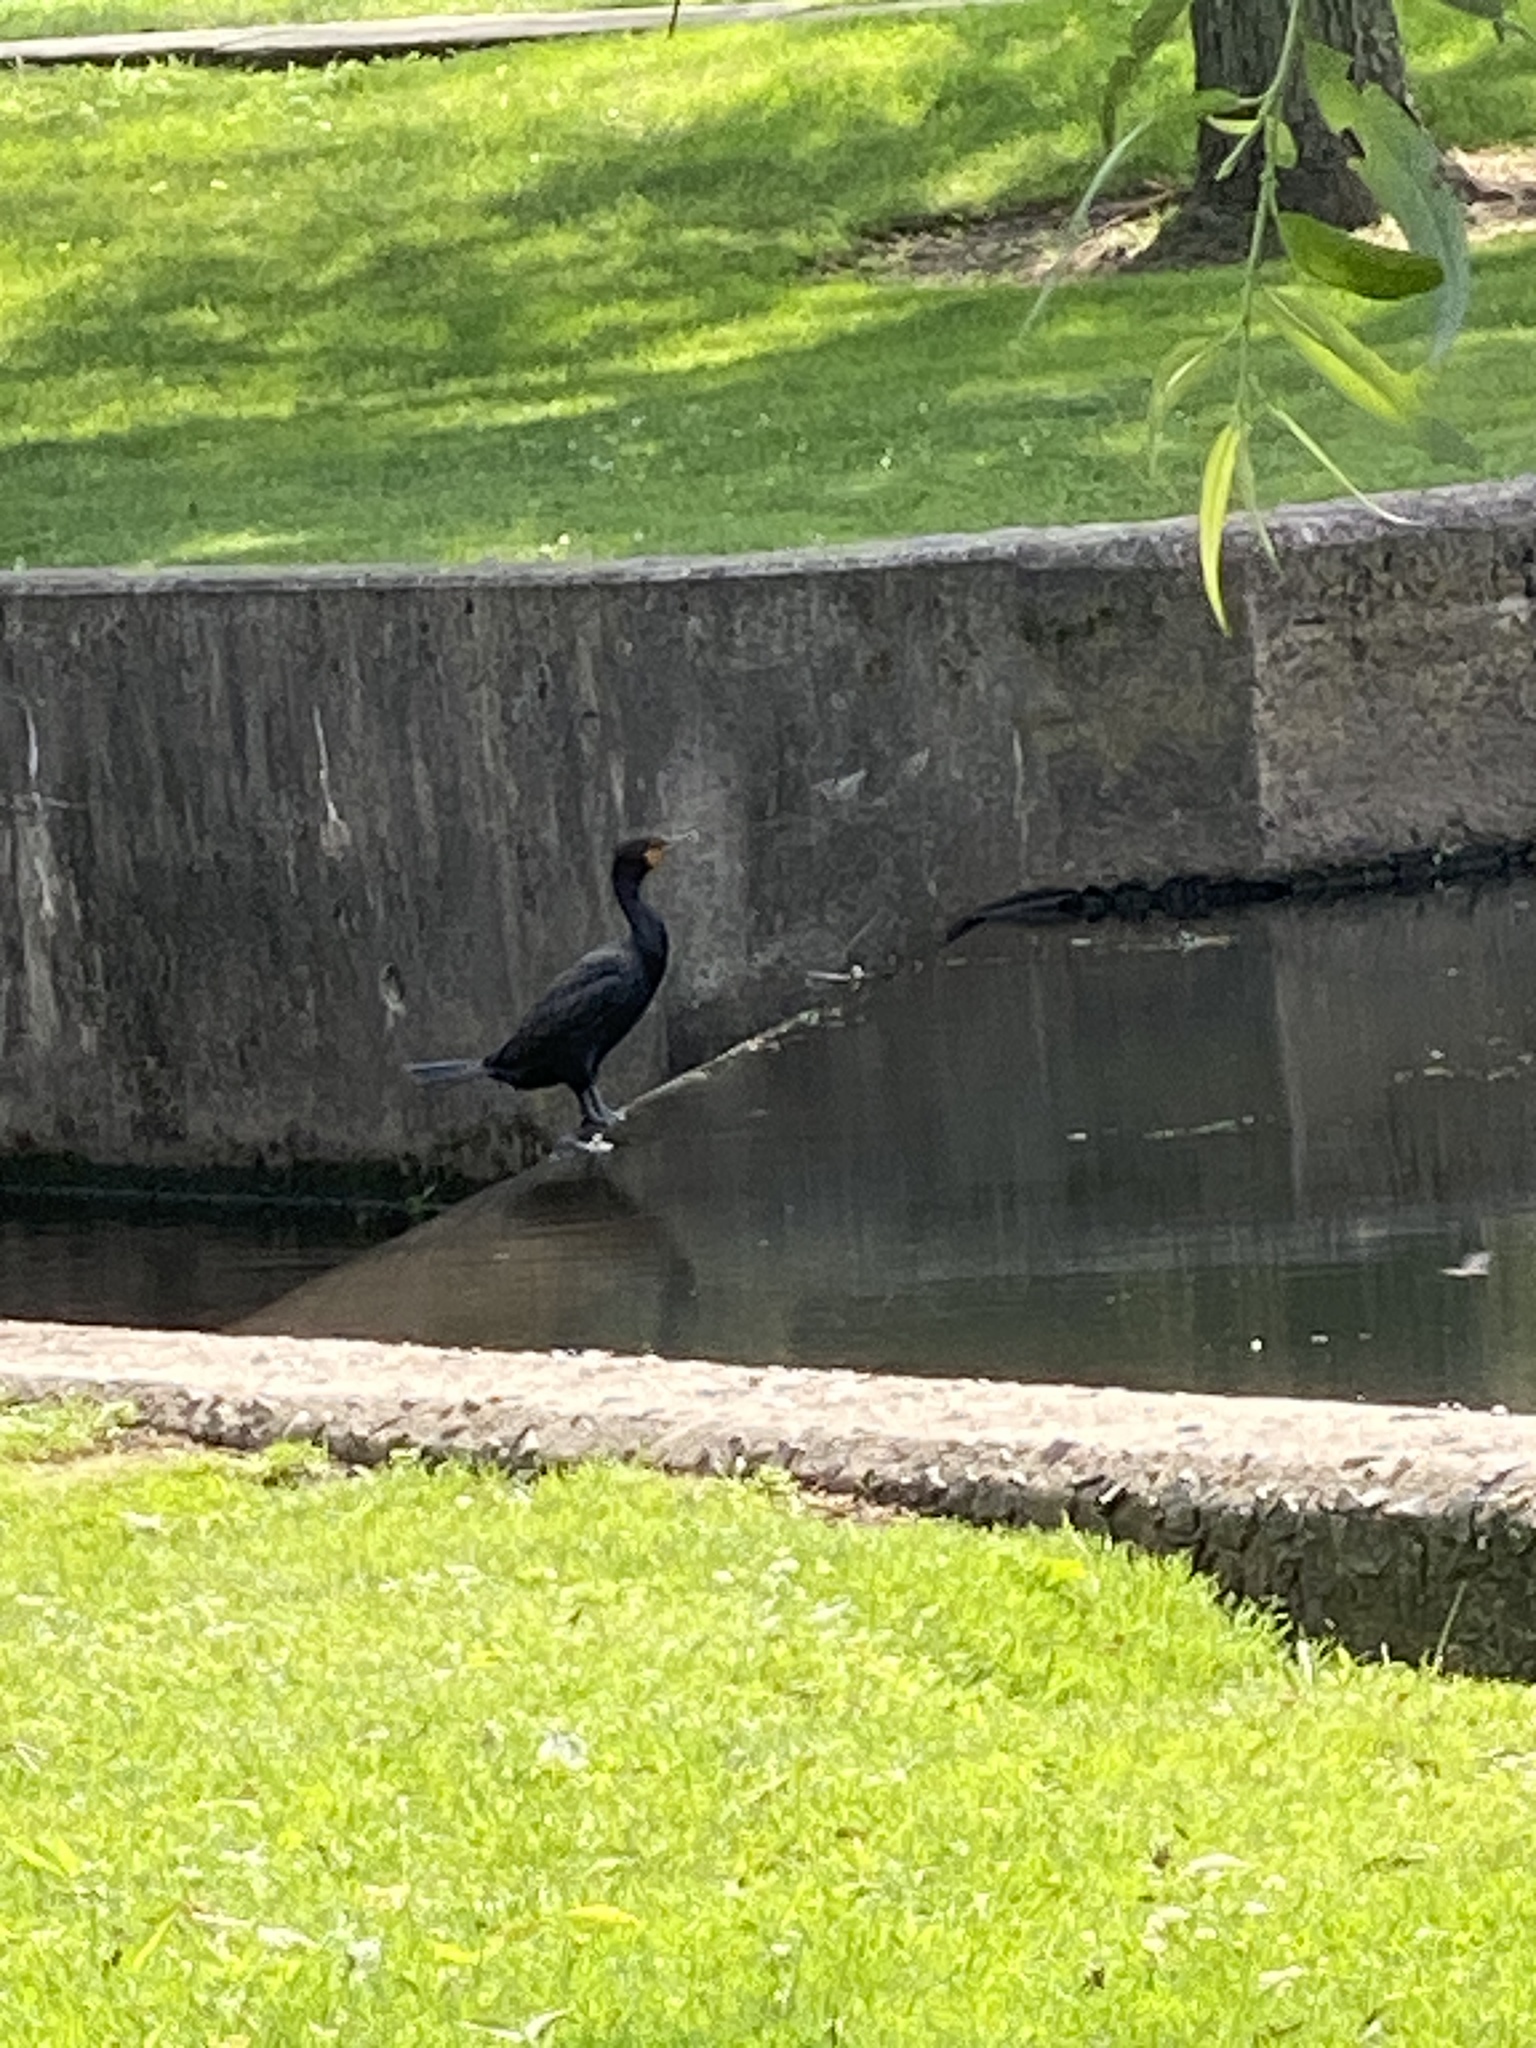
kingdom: Animalia
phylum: Chordata
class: Aves
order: Suliformes
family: Phalacrocoracidae
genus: Phalacrocorax
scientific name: Phalacrocorax auritus
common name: Double-crested cormorant
